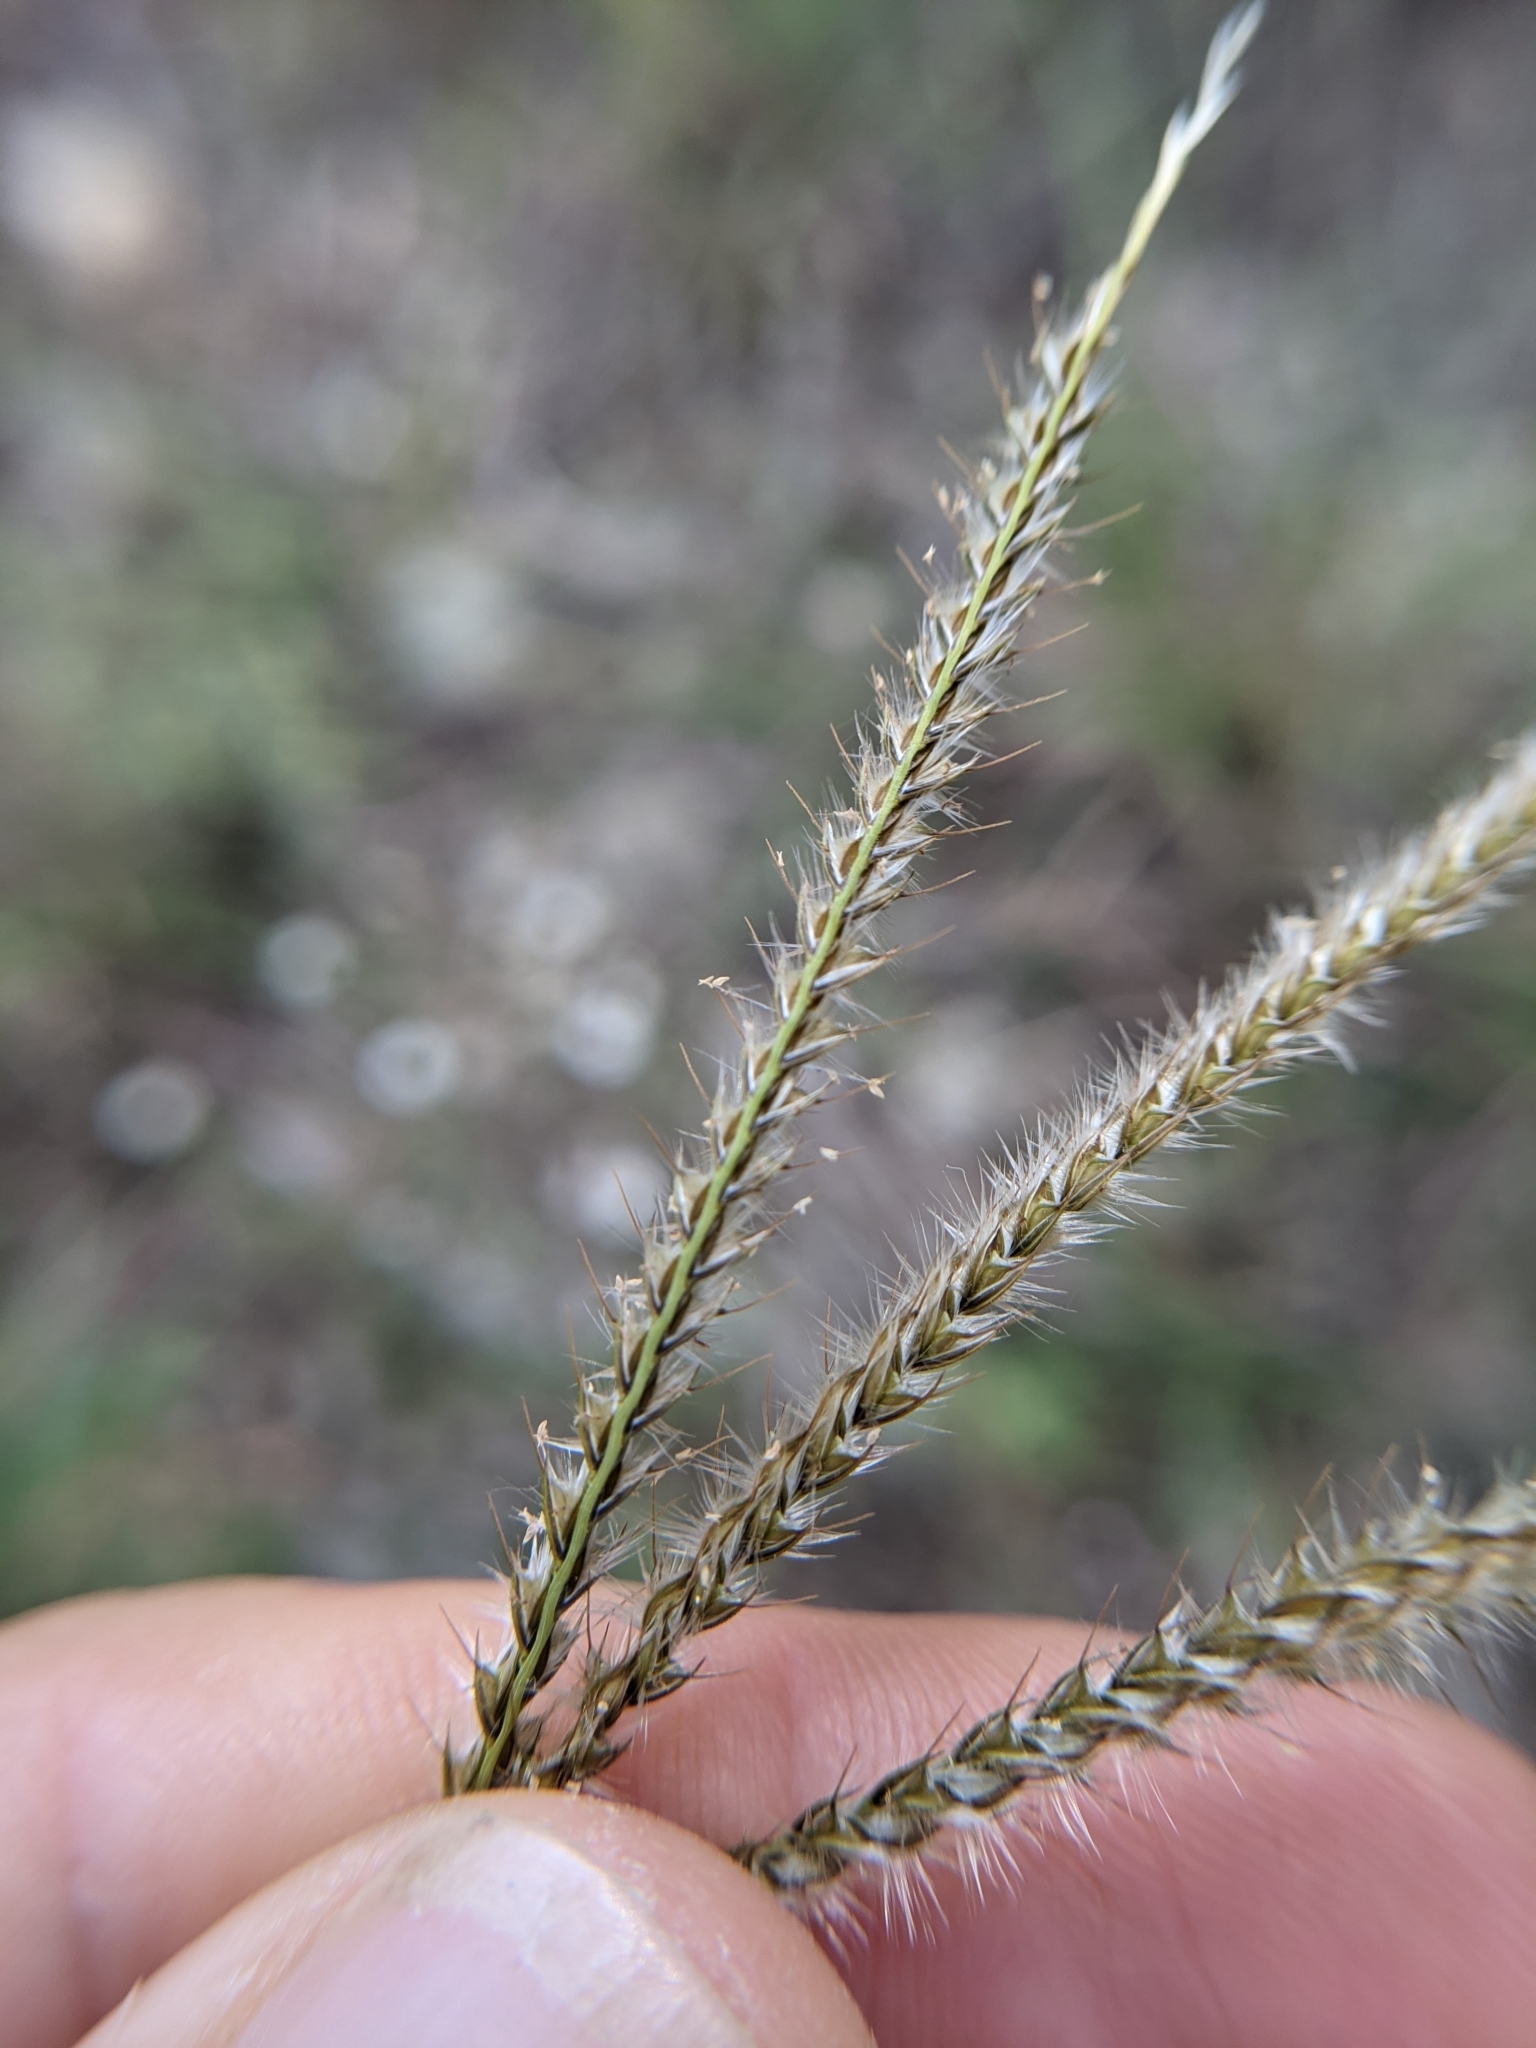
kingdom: Plantae
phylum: Tracheophyta
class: Liliopsida
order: Poales
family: Poaceae
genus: Stapfochloa
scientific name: Stapfochloa canterae
